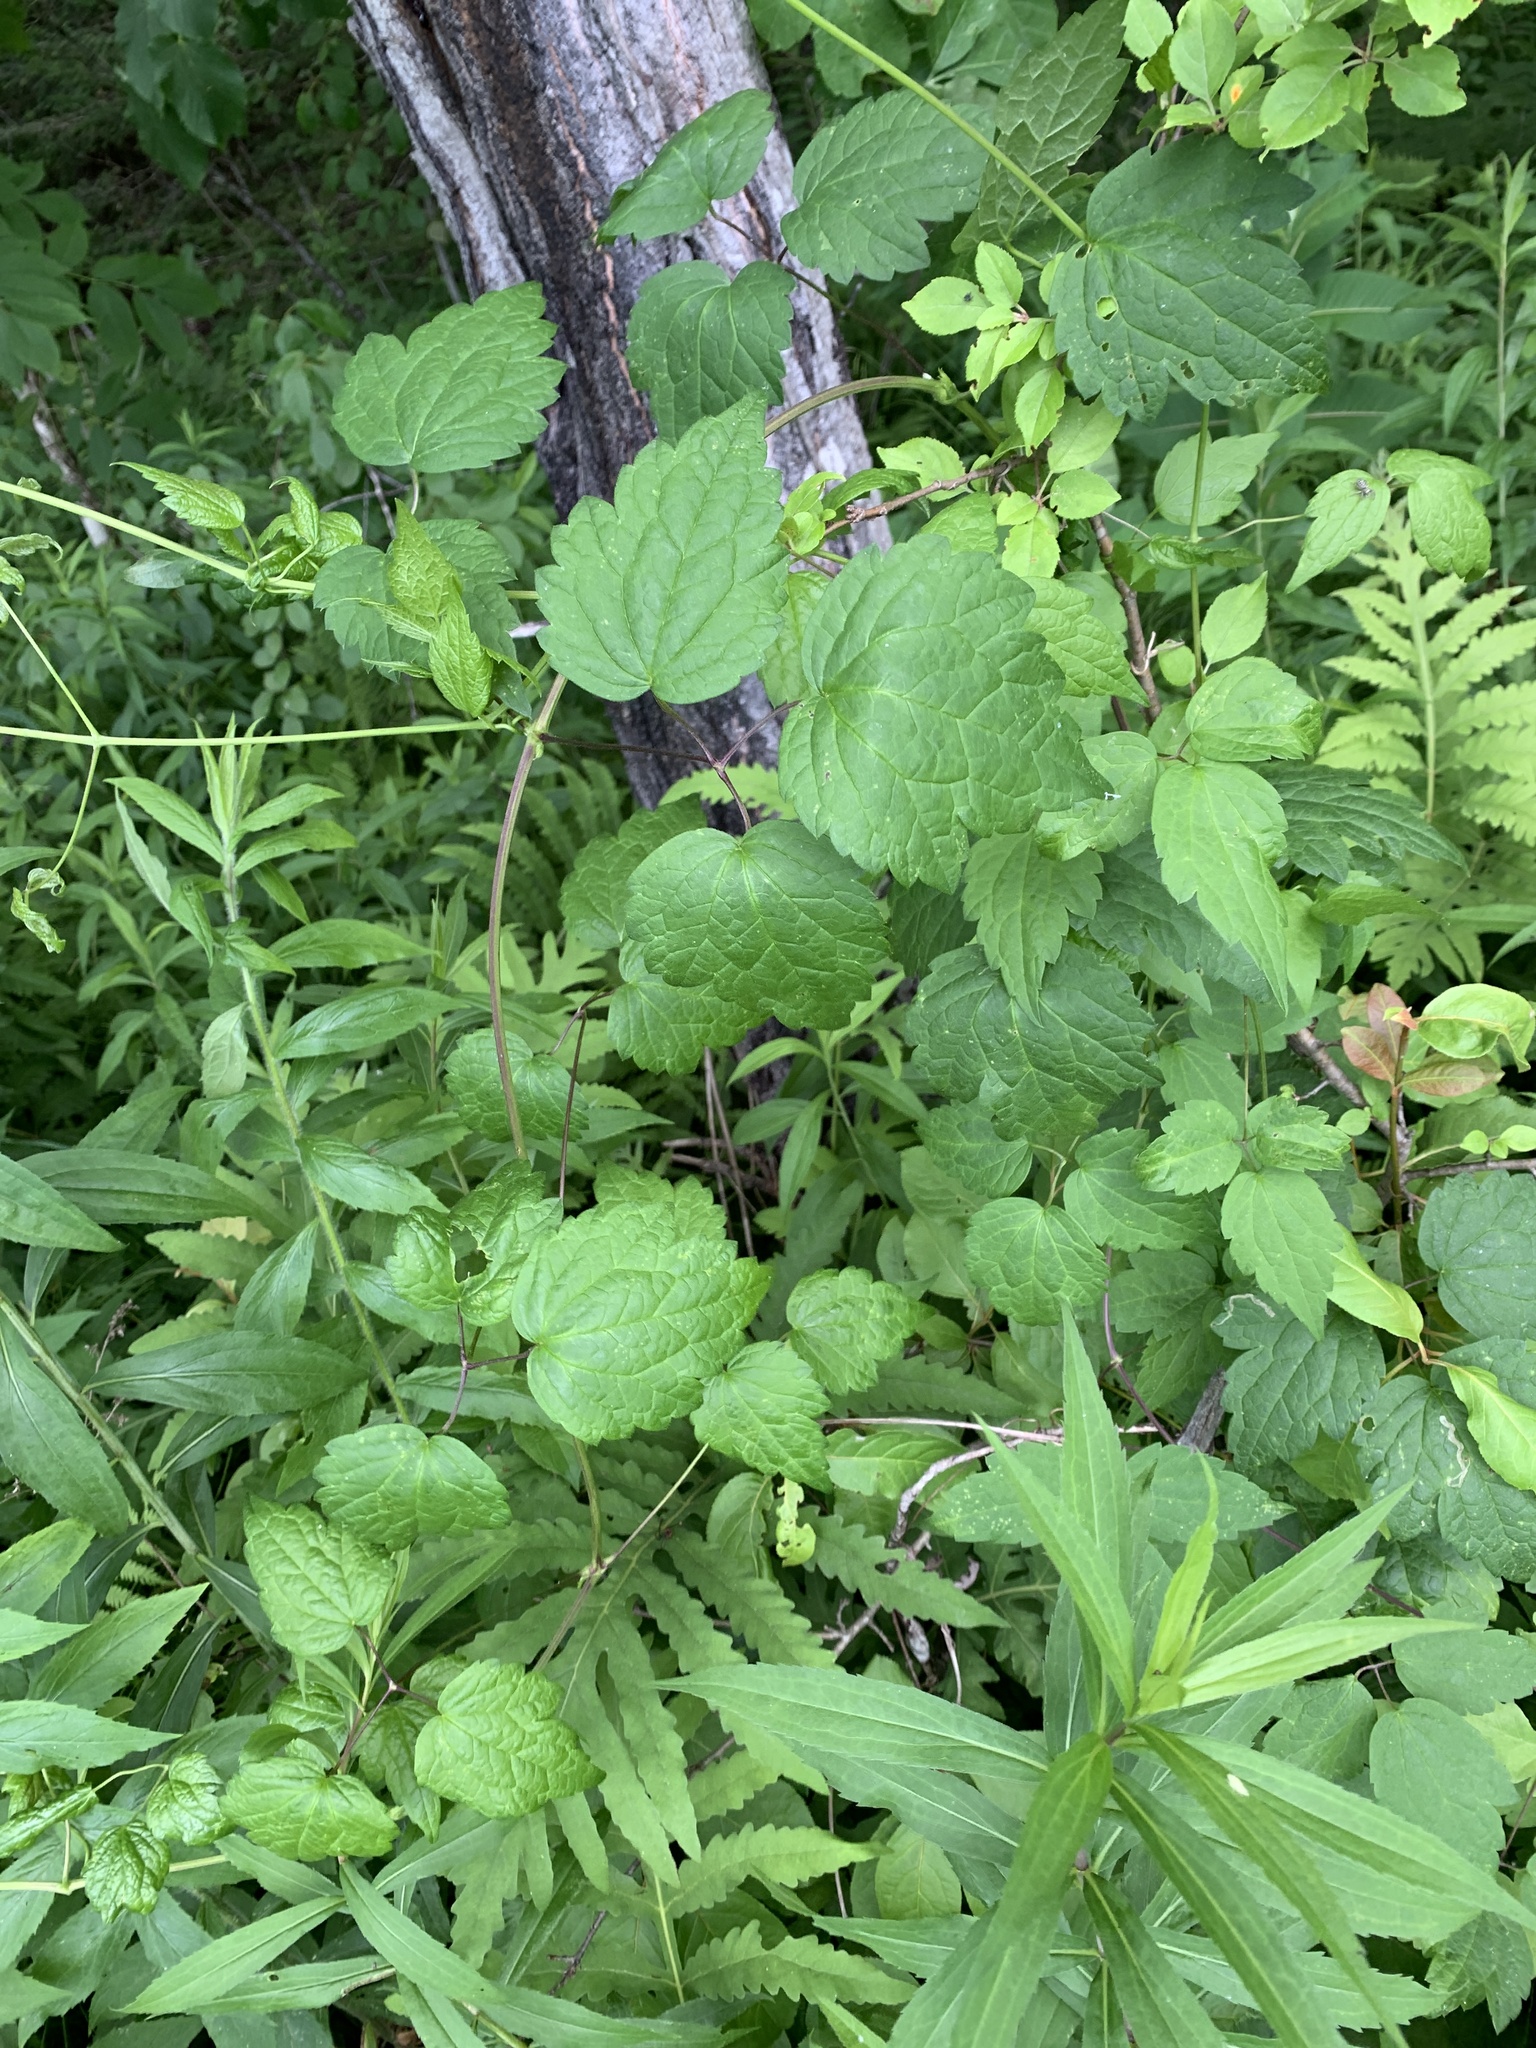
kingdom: Plantae
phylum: Tracheophyta
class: Magnoliopsida
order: Ranunculales
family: Ranunculaceae
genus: Clematis
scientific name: Clematis virginiana
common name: Virgin's-bower
